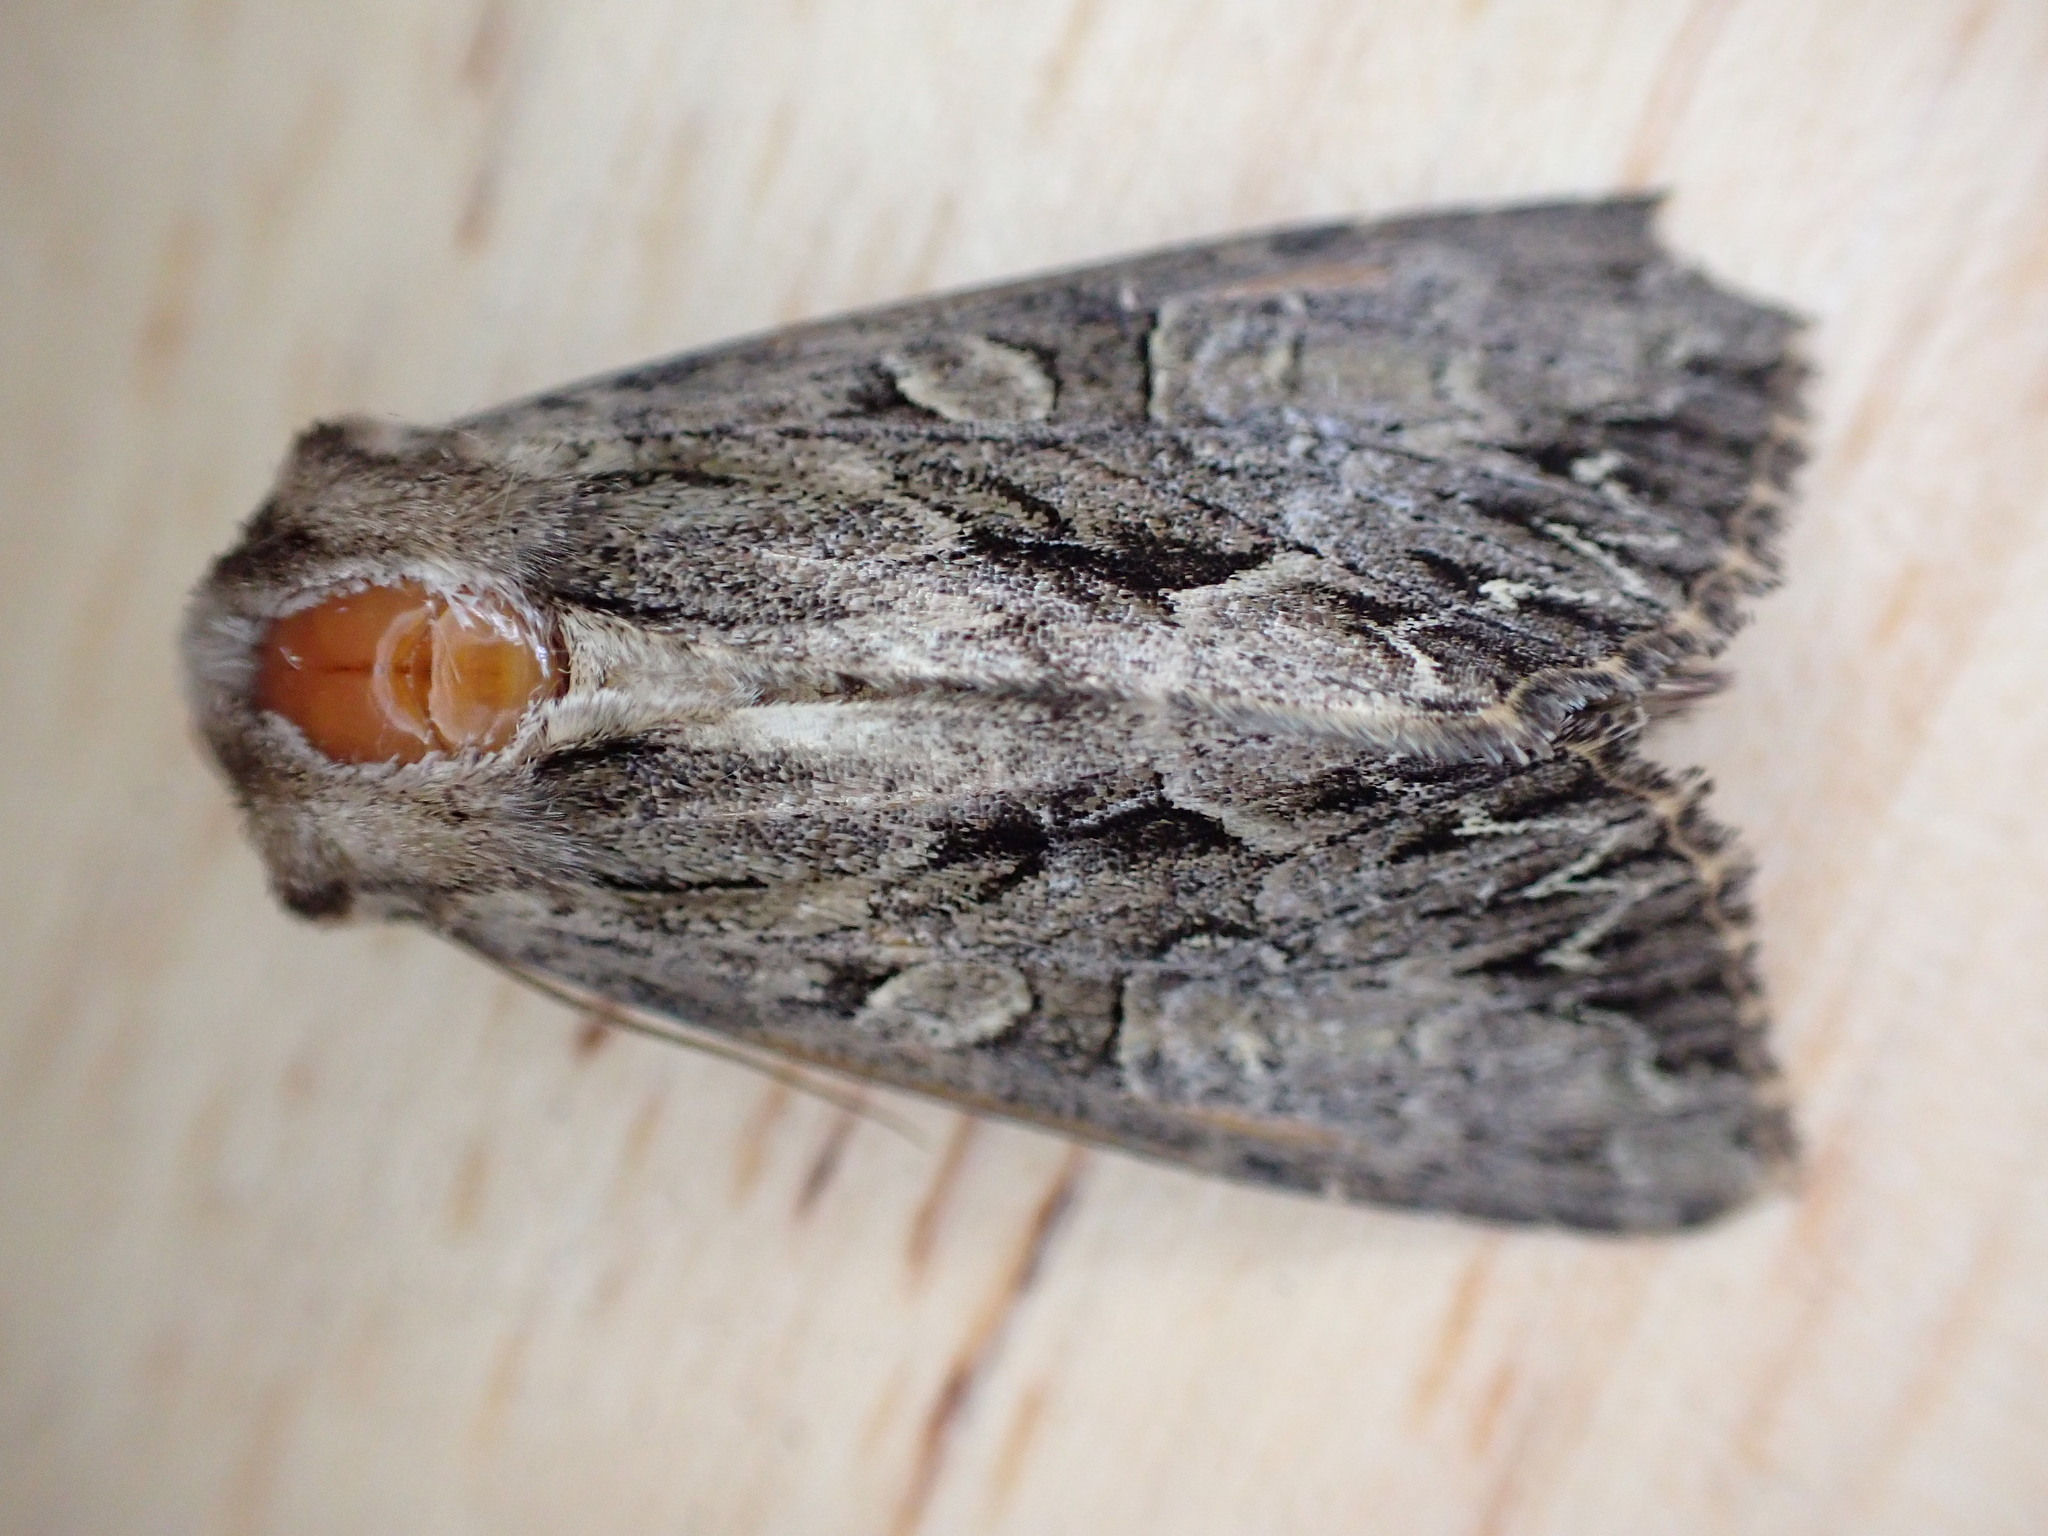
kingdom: Animalia
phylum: Arthropoda
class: Insecta
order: Lepidoptera
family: Noctuidae
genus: Apamea
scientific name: Apamea monoglypha
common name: Dark arches
